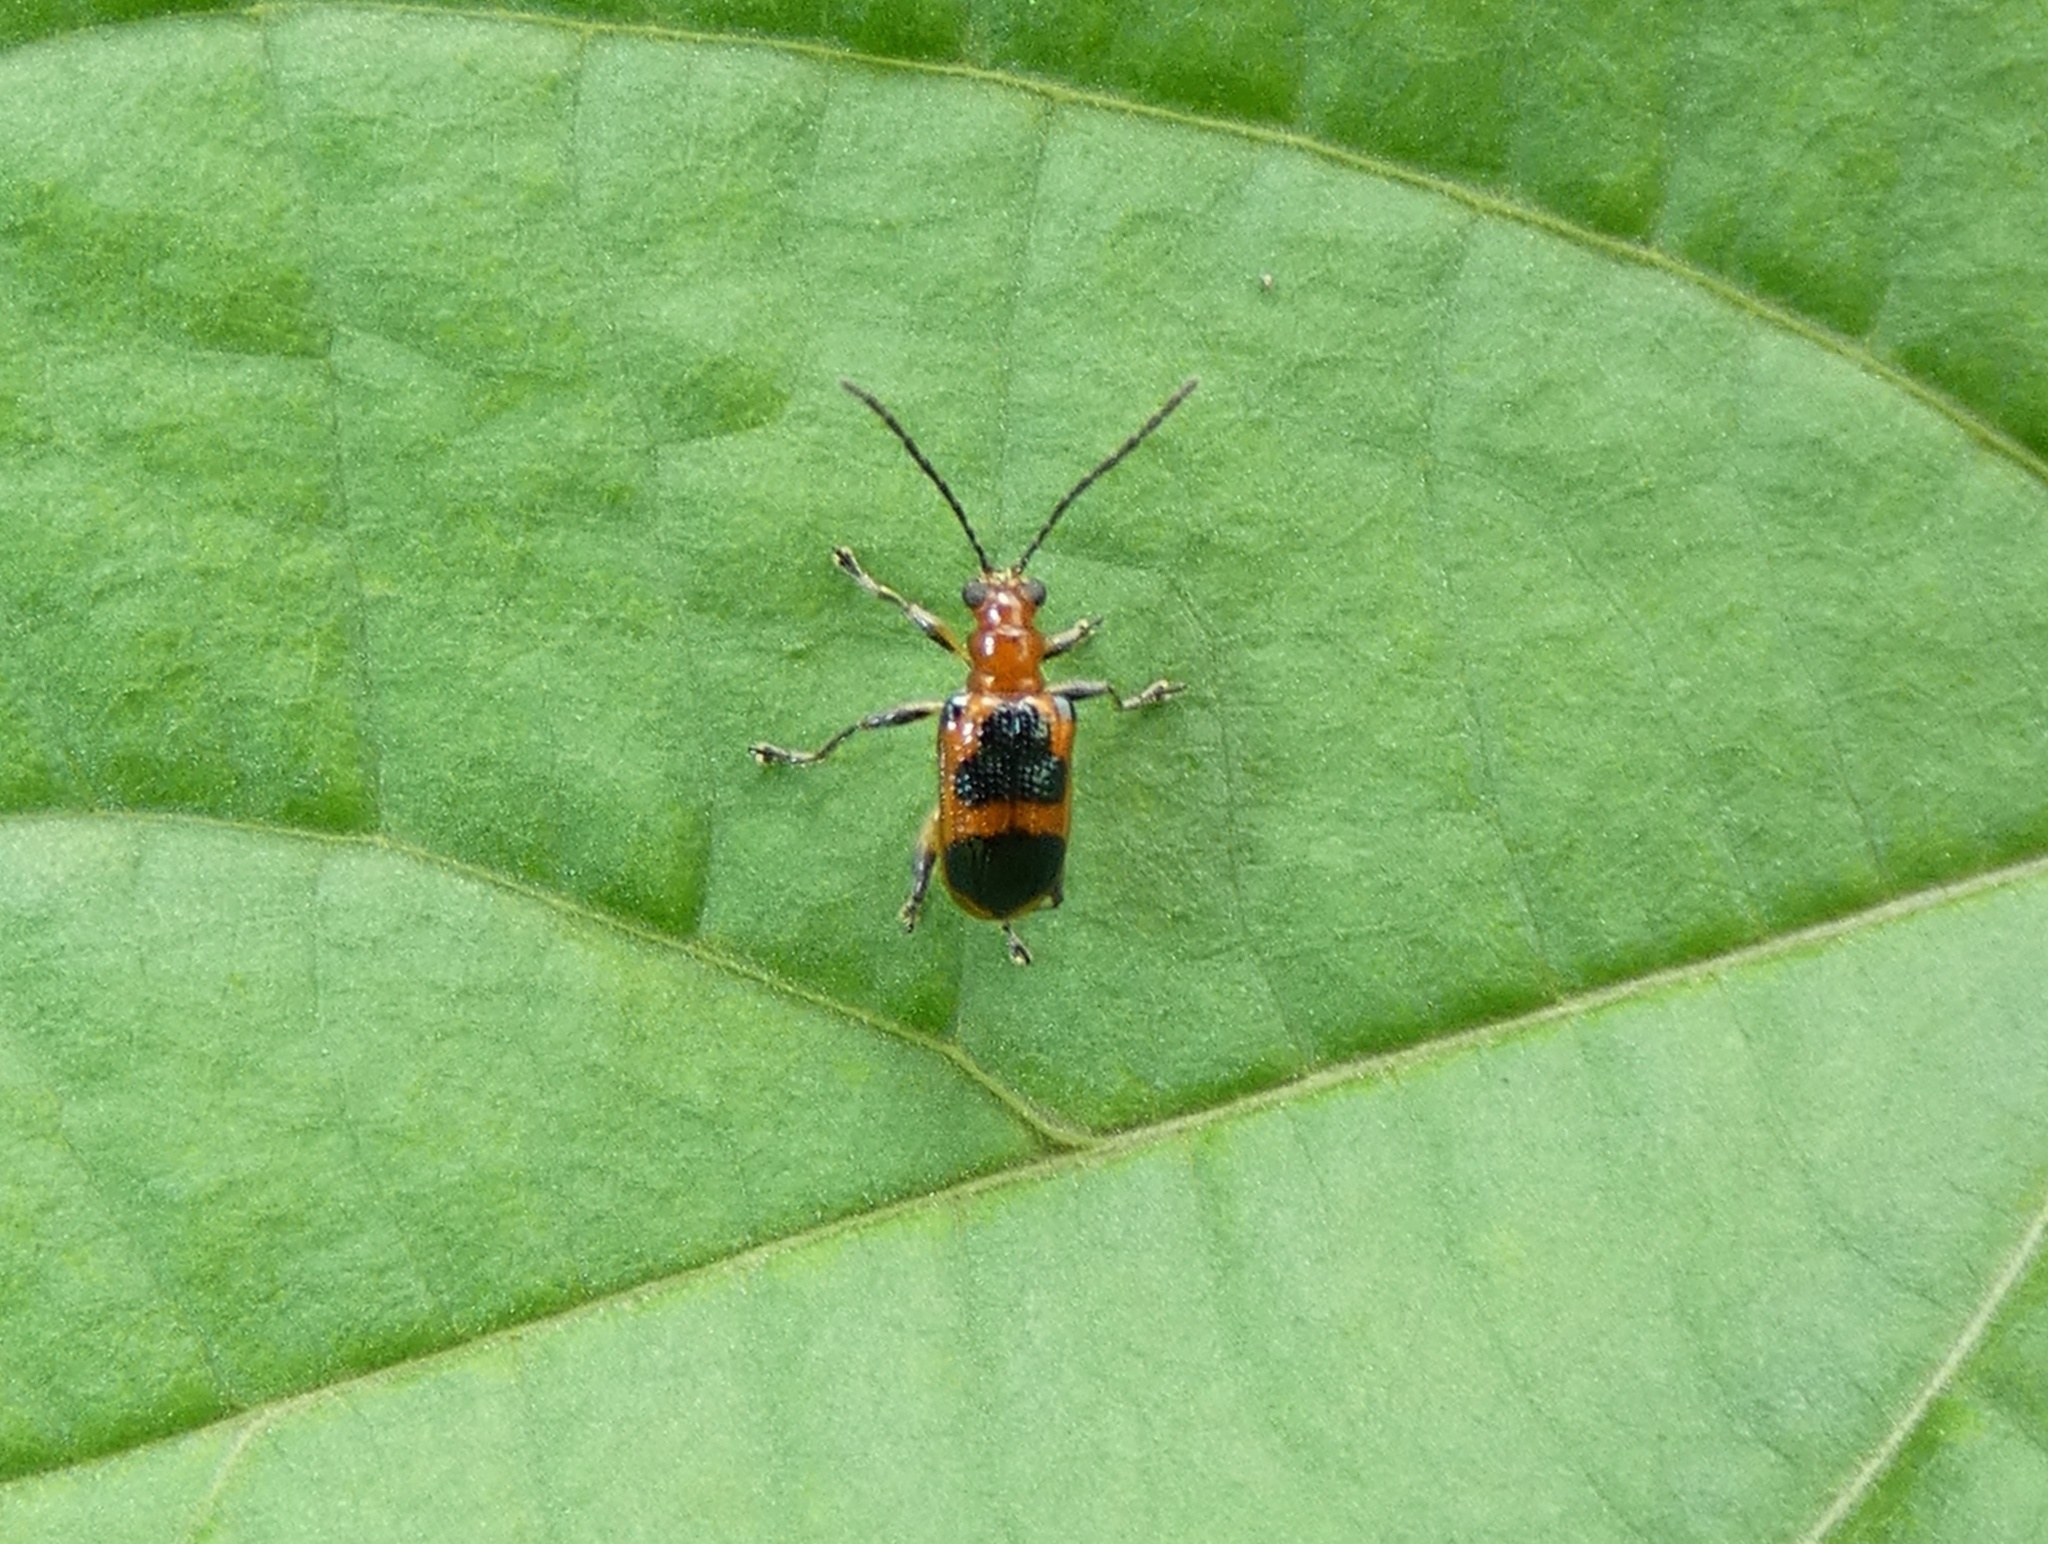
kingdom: Animalia
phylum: Arthropoda
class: Insecta
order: Coleoptera
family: Chrysomelidae
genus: Neolema
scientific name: Neolema dorsalis
